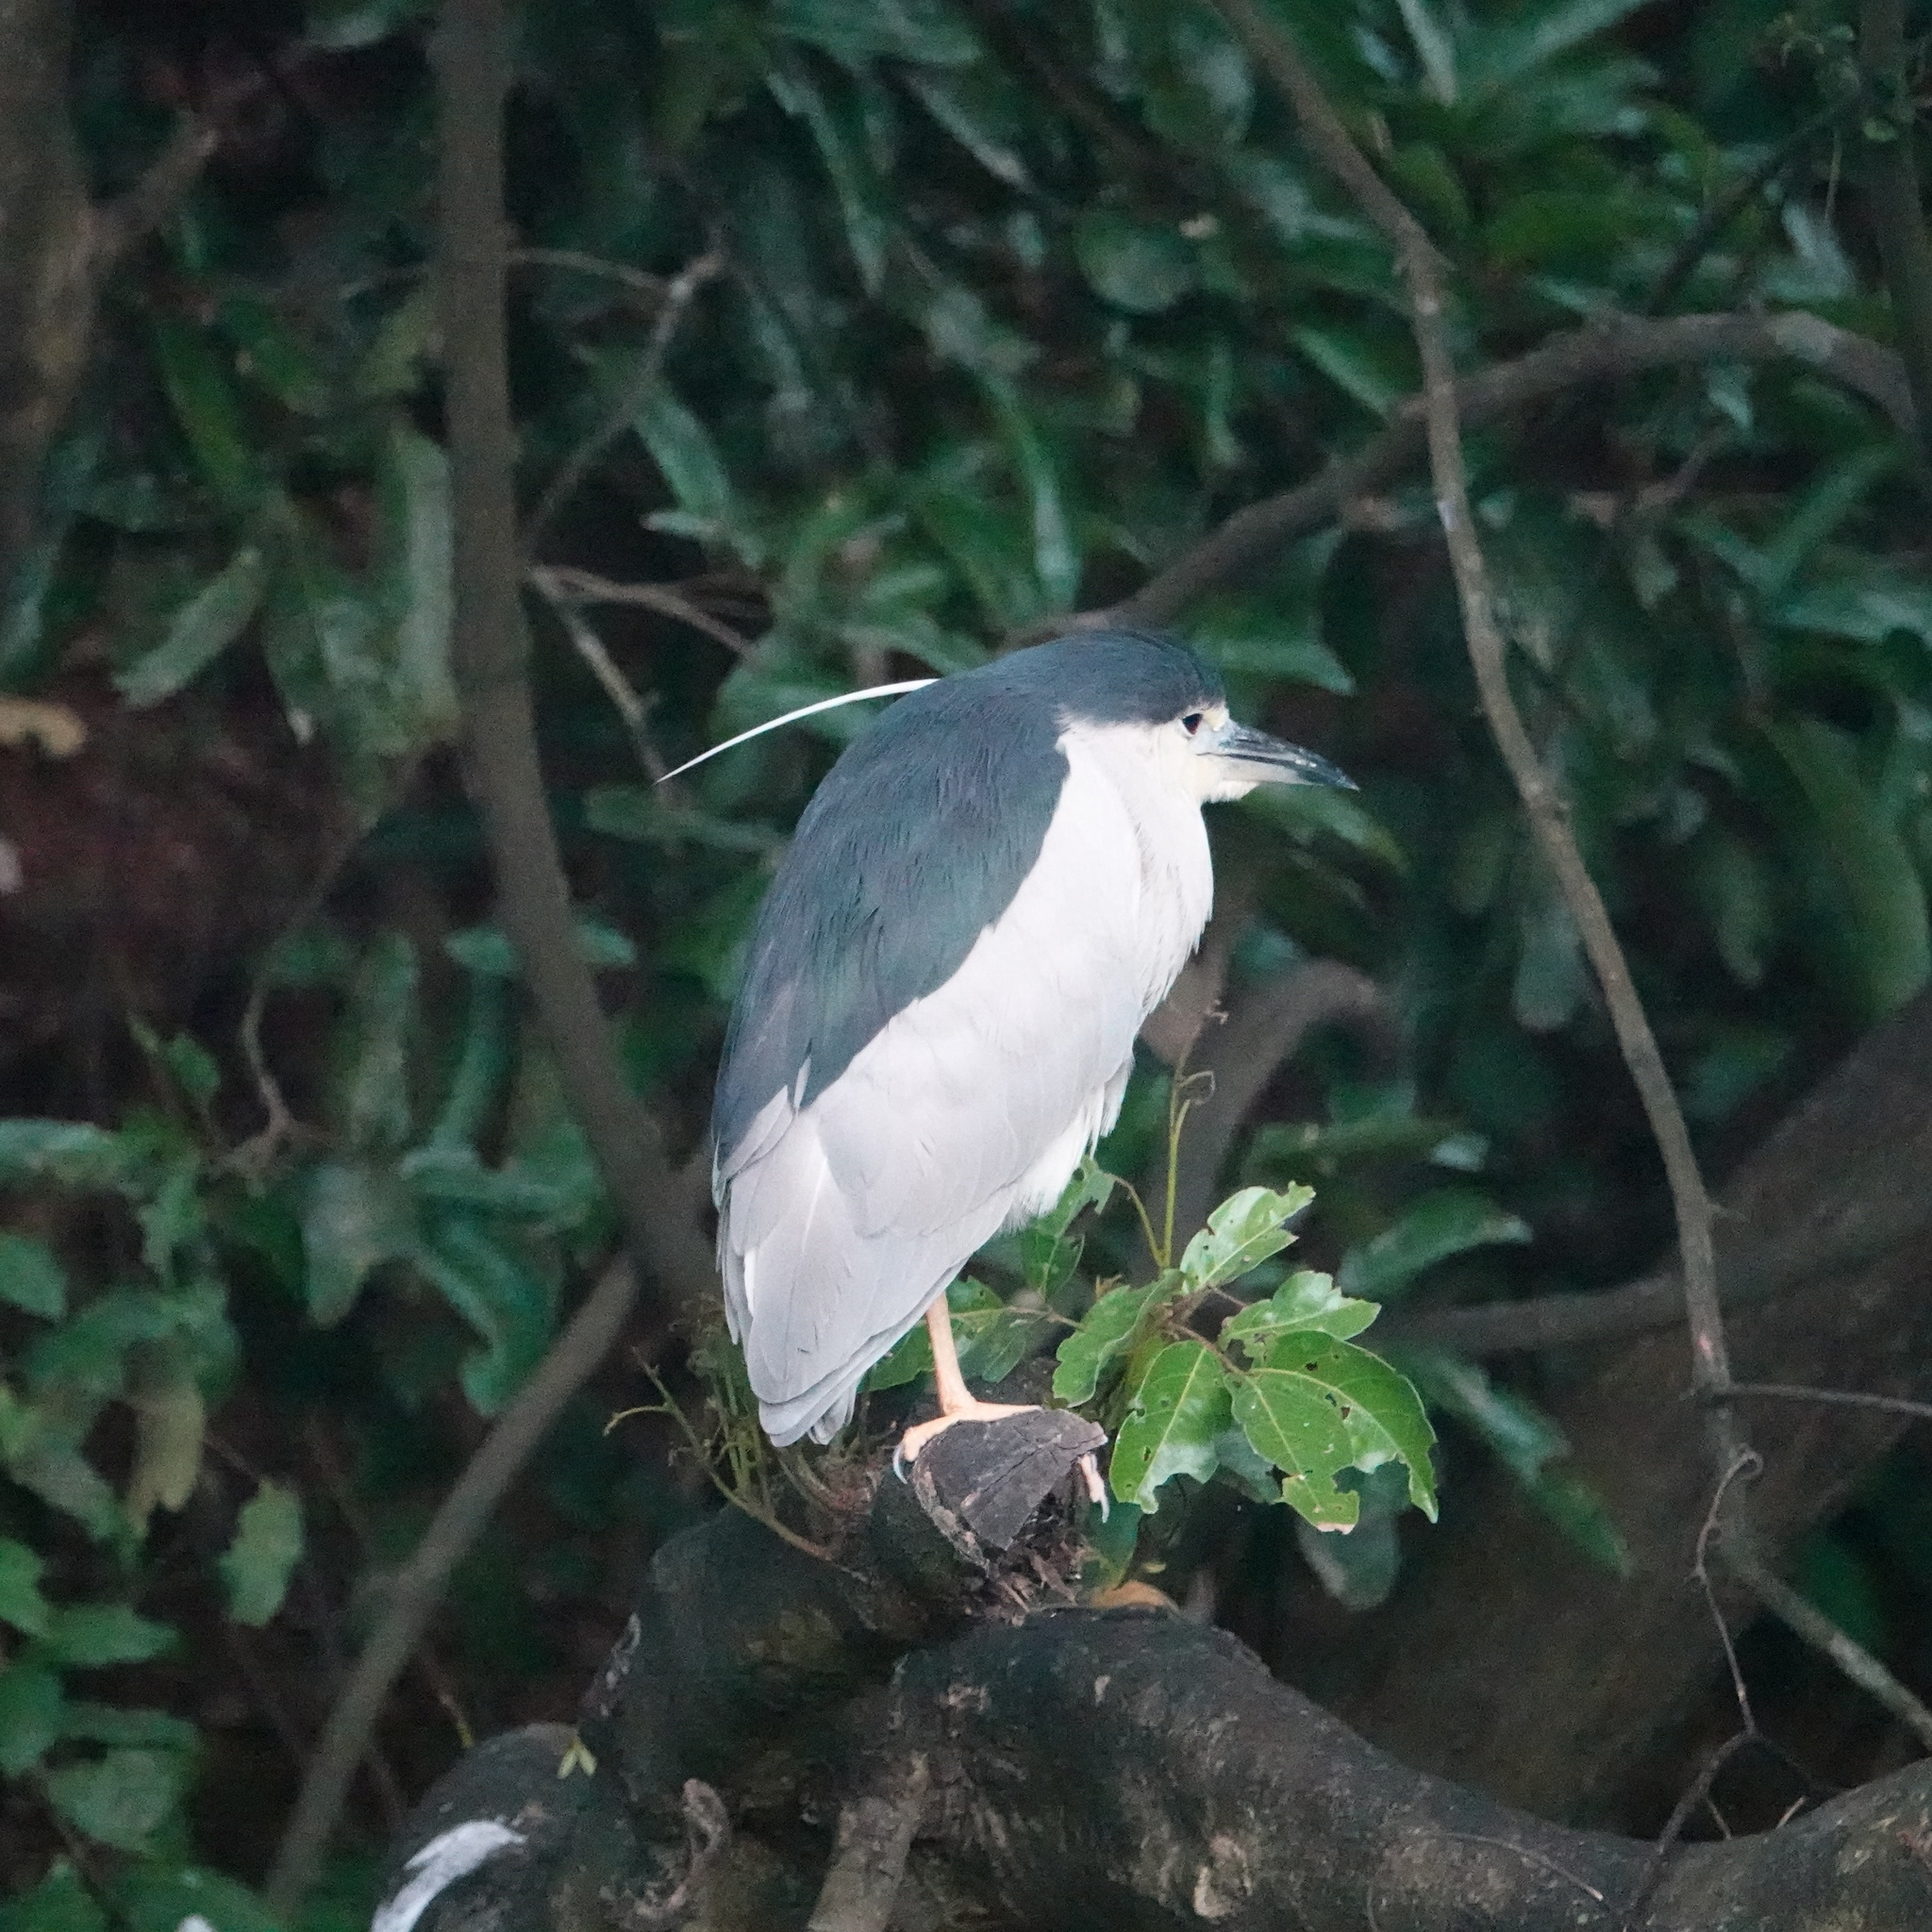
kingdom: Animalia
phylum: Chordata
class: Aves
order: Pelecaniformes
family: Ardeidae
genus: Nycticorax
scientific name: Nycticorax nycticorax
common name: Black-crowned night heron
